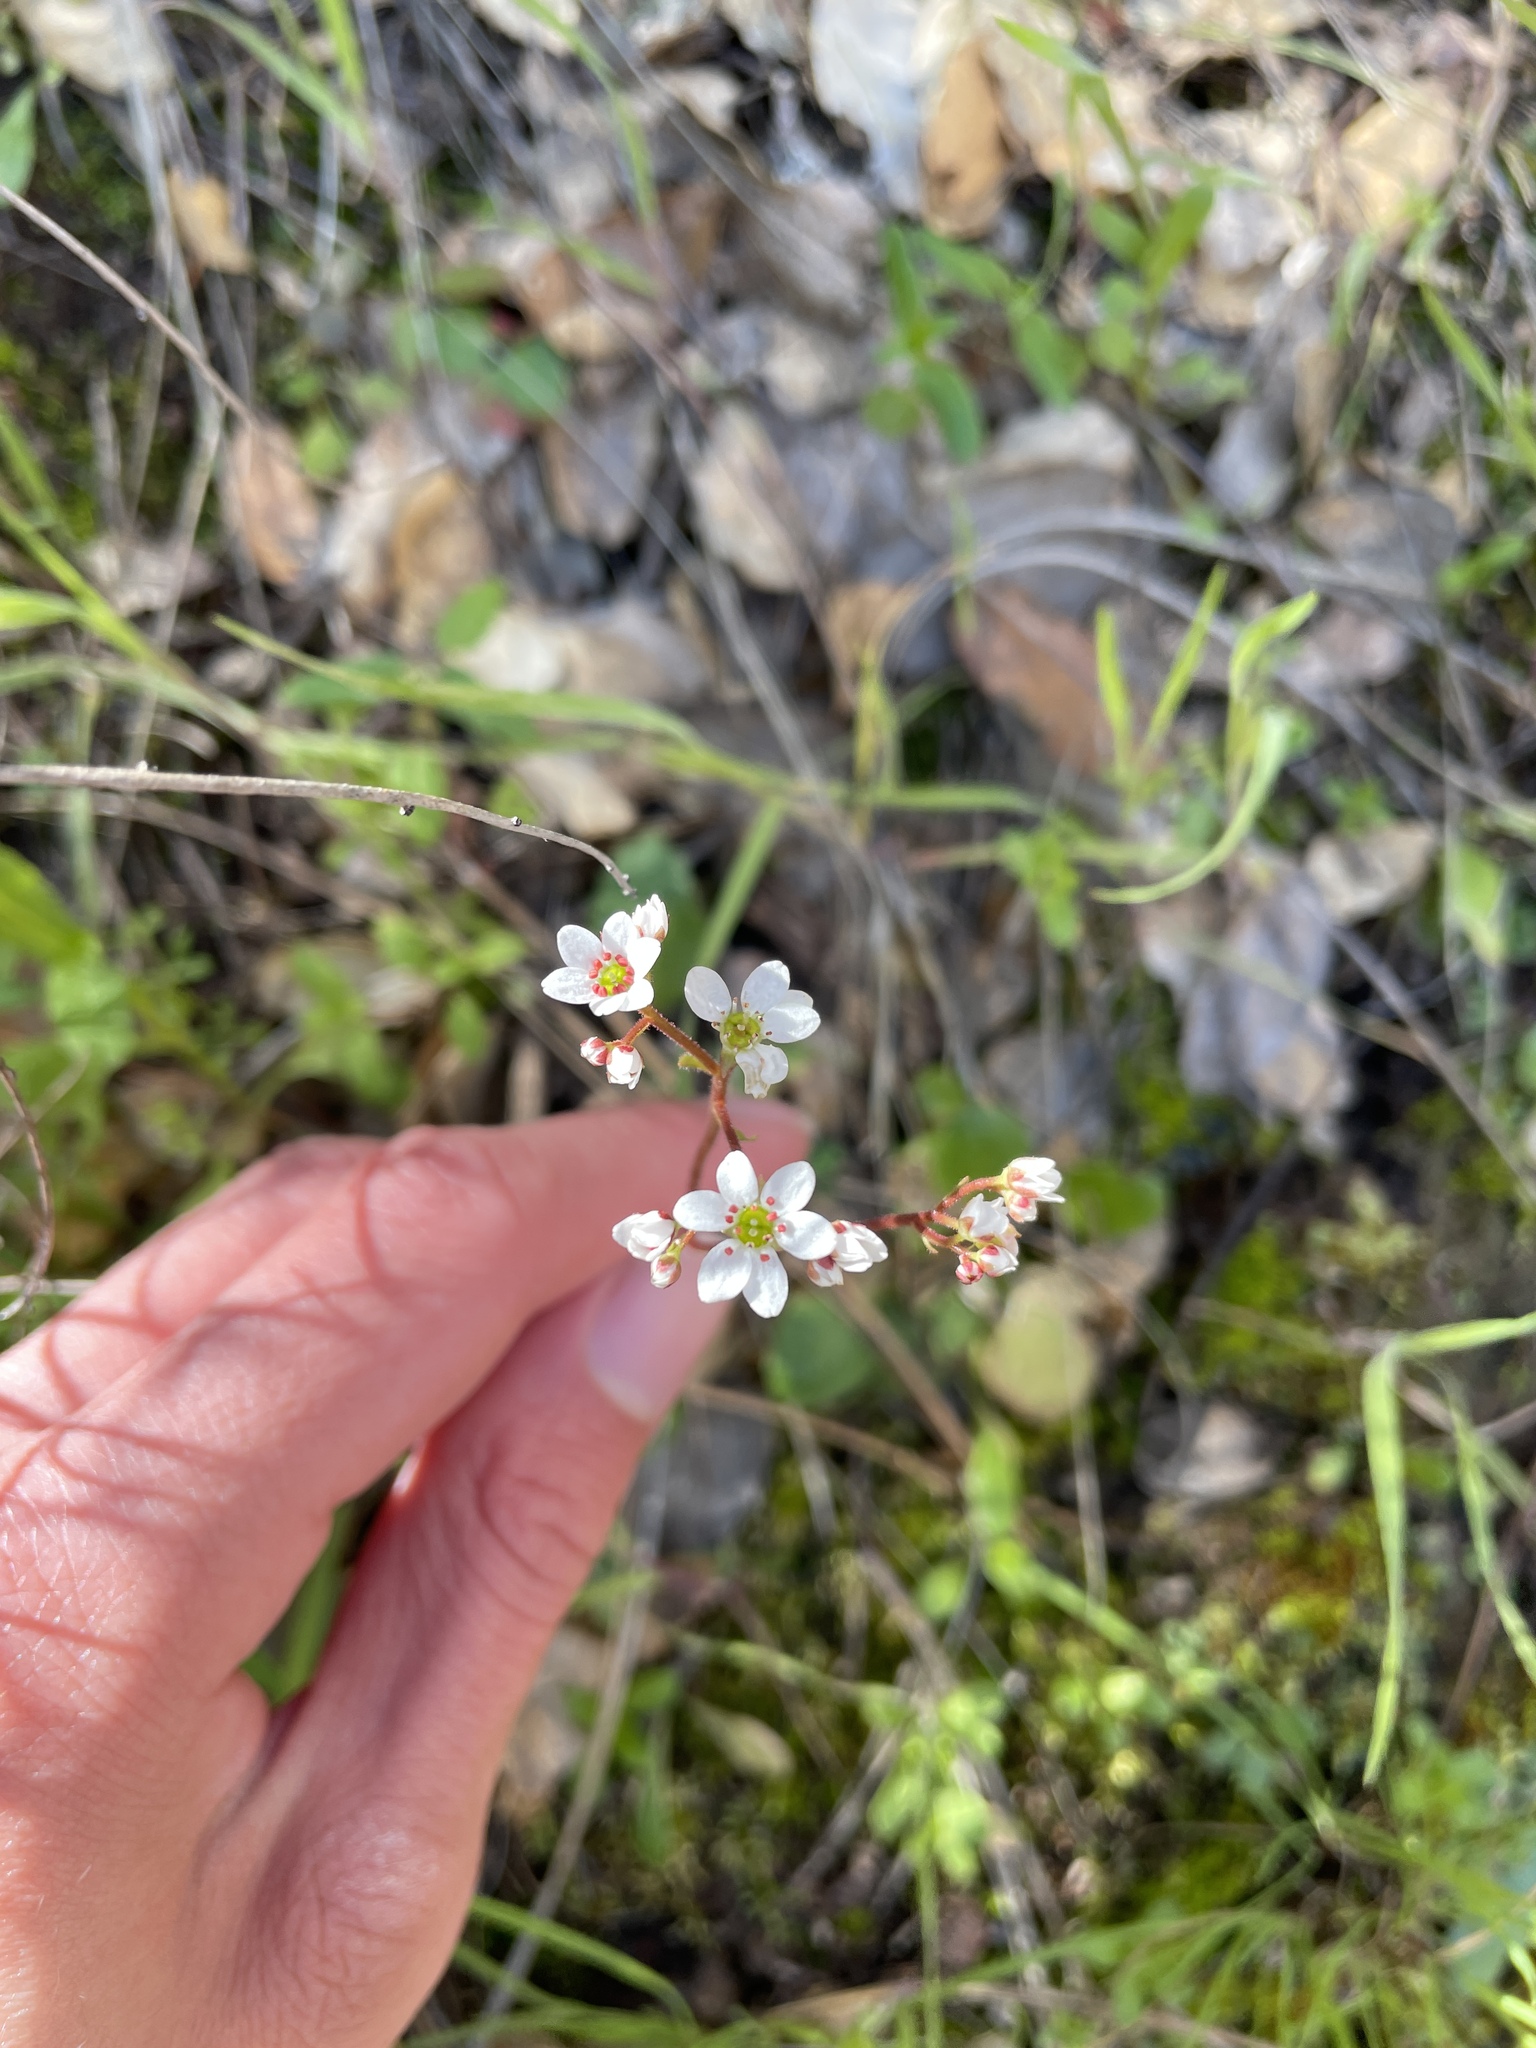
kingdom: Plantae
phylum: Tracheophyta
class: Magnoliopsida
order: Saxifragales
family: Saxifragaceae
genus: Micranthes
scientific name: Micranthes californica
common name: California saxifrage
